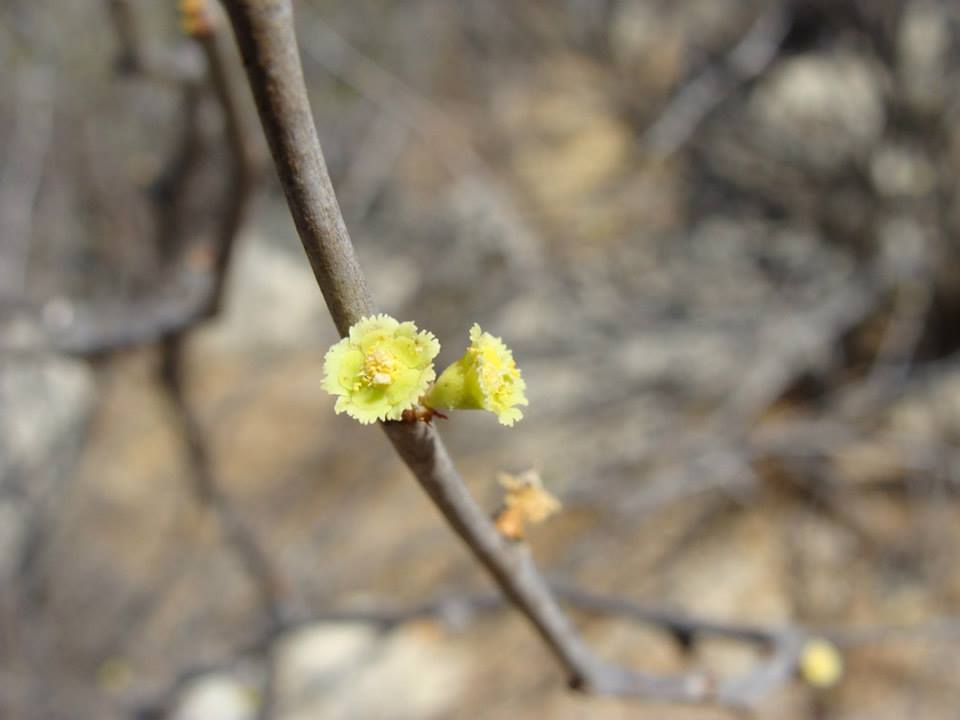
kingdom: Plantae
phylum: Tracheophyta
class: Magnoliopsida
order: Malpighiales
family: Euphorbiaceae
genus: Euphorbia
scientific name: Euphorbia californica
